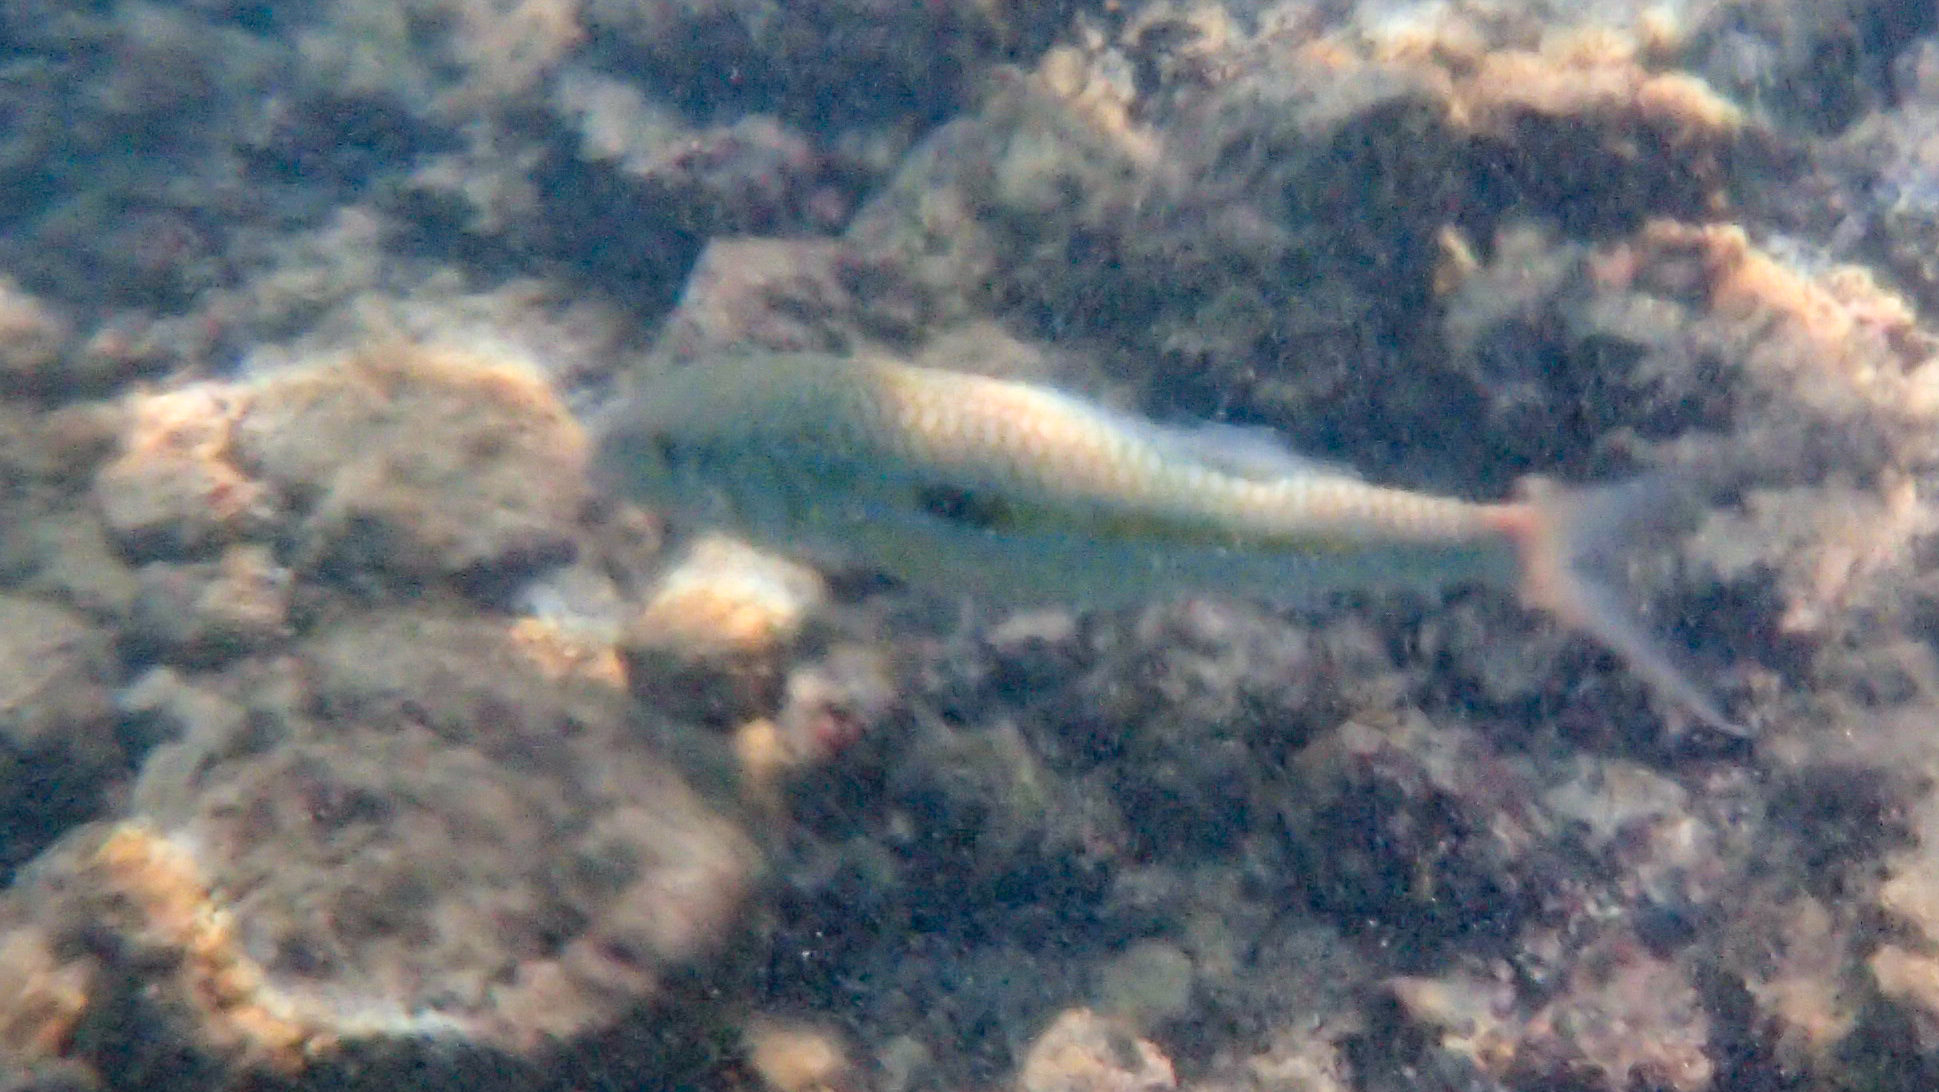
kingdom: Animalia
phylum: Chordata
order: Perciformes
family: Mullidae
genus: Mulloidichthys
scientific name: Mulloidichthys flavolineatus
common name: Yellowstripe goatfish
